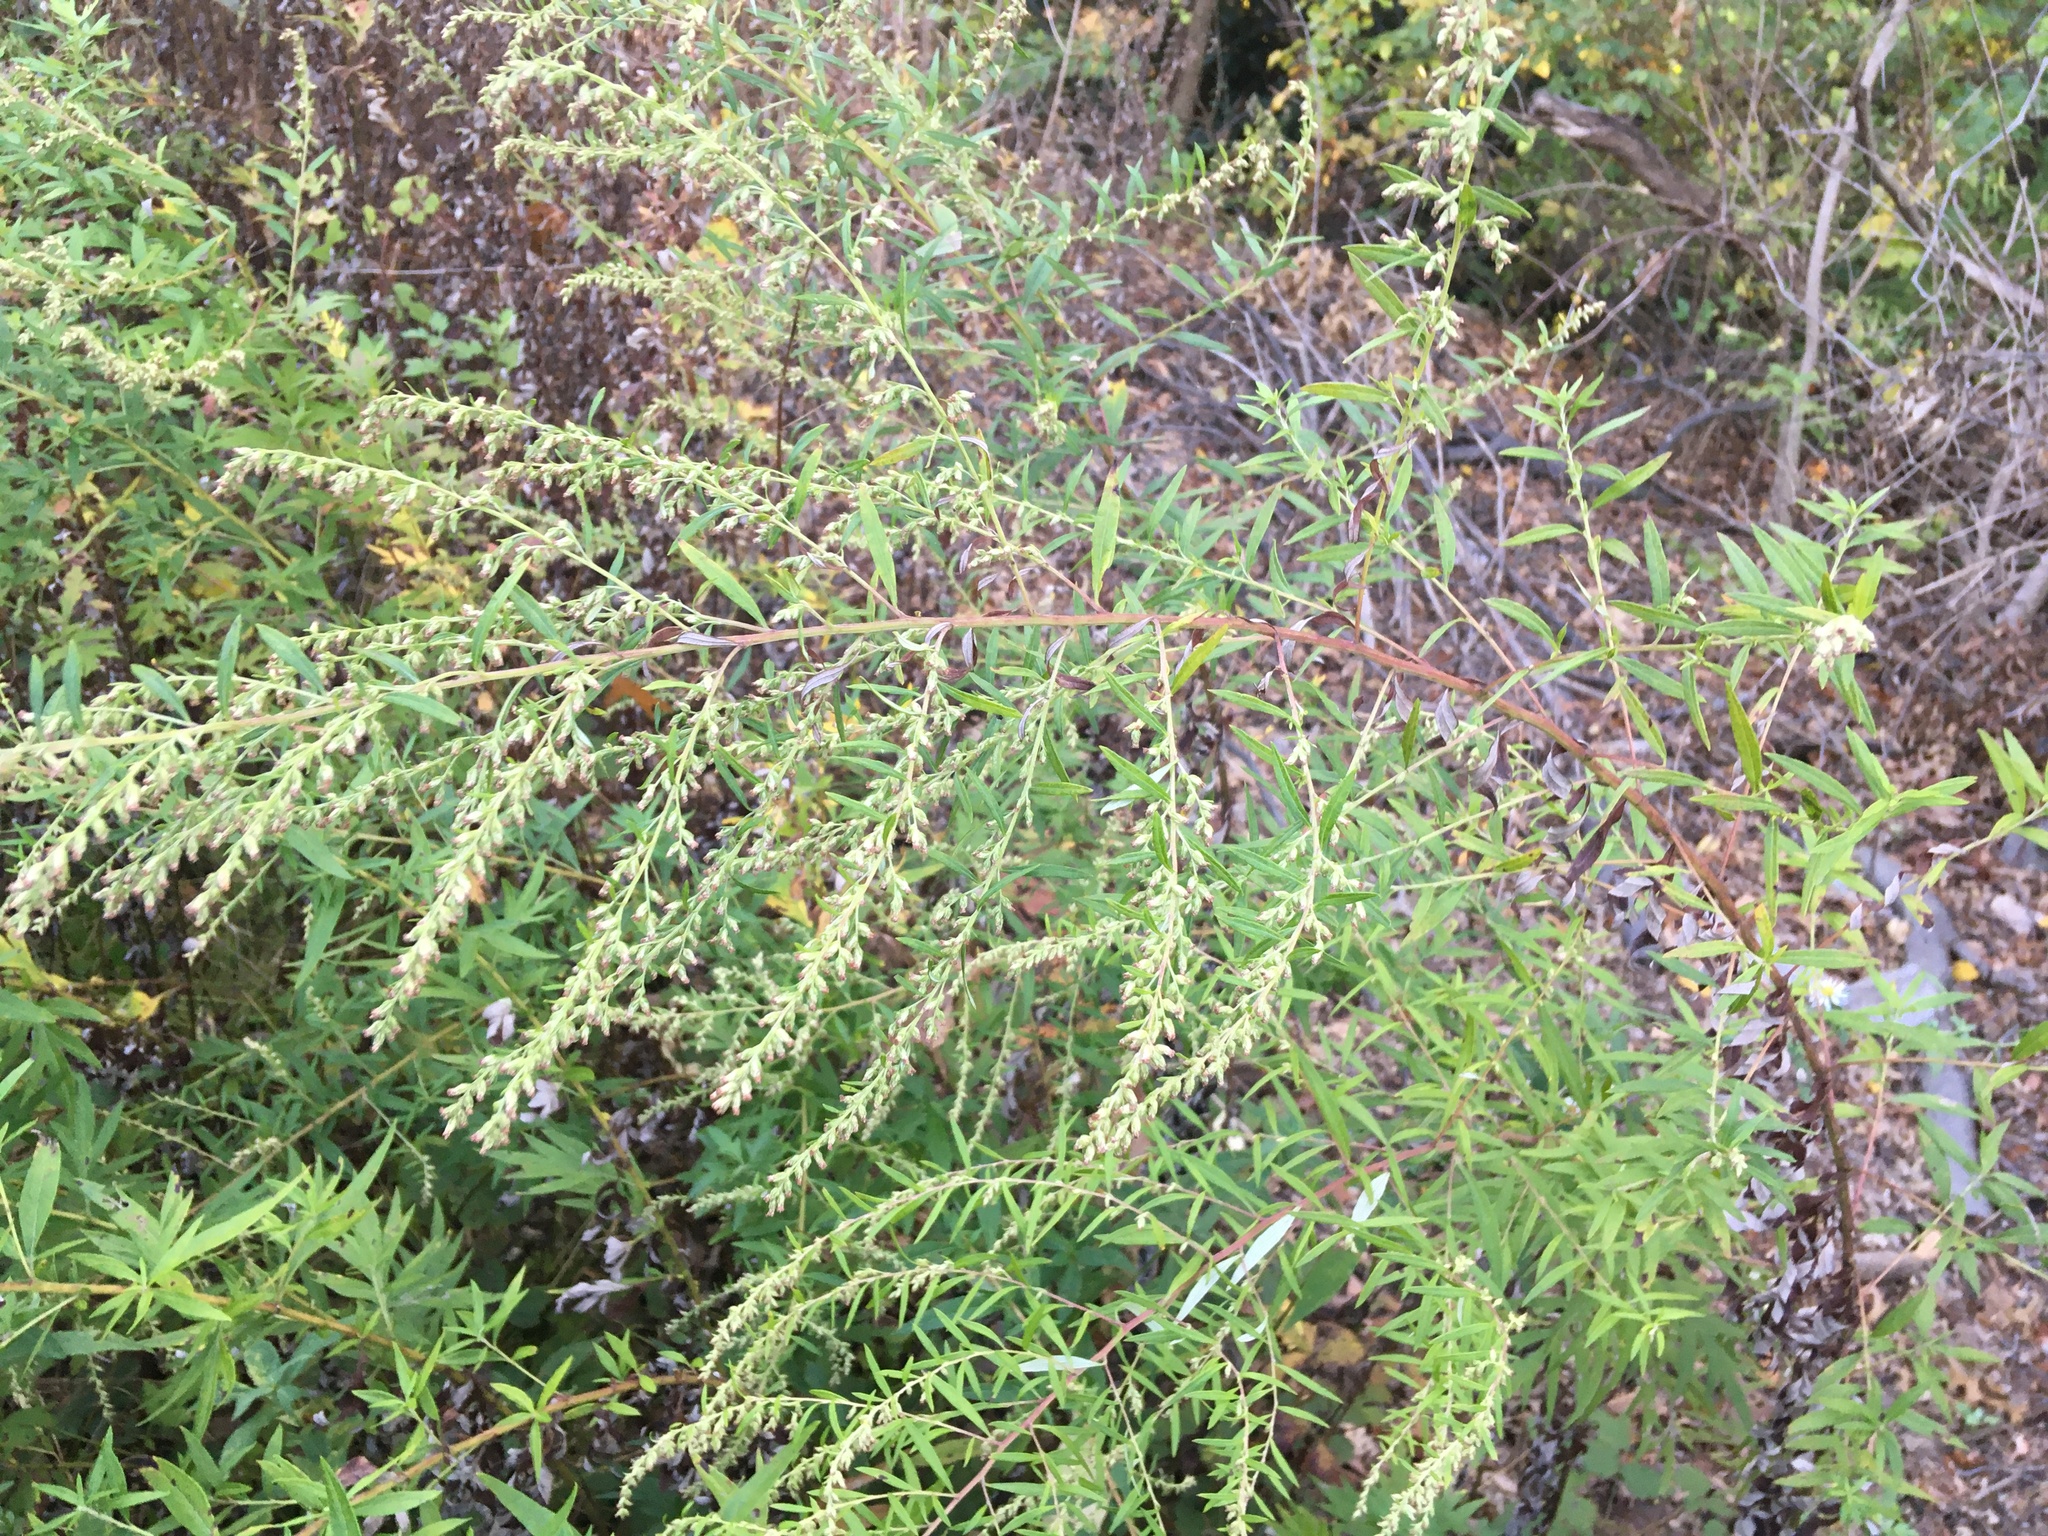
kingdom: Plantae
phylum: Tracheophyta
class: Magnoliopsida
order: Asterales
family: Asteraceae
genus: Artemisia
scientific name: Artemisia vulgaris
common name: Mugwort
